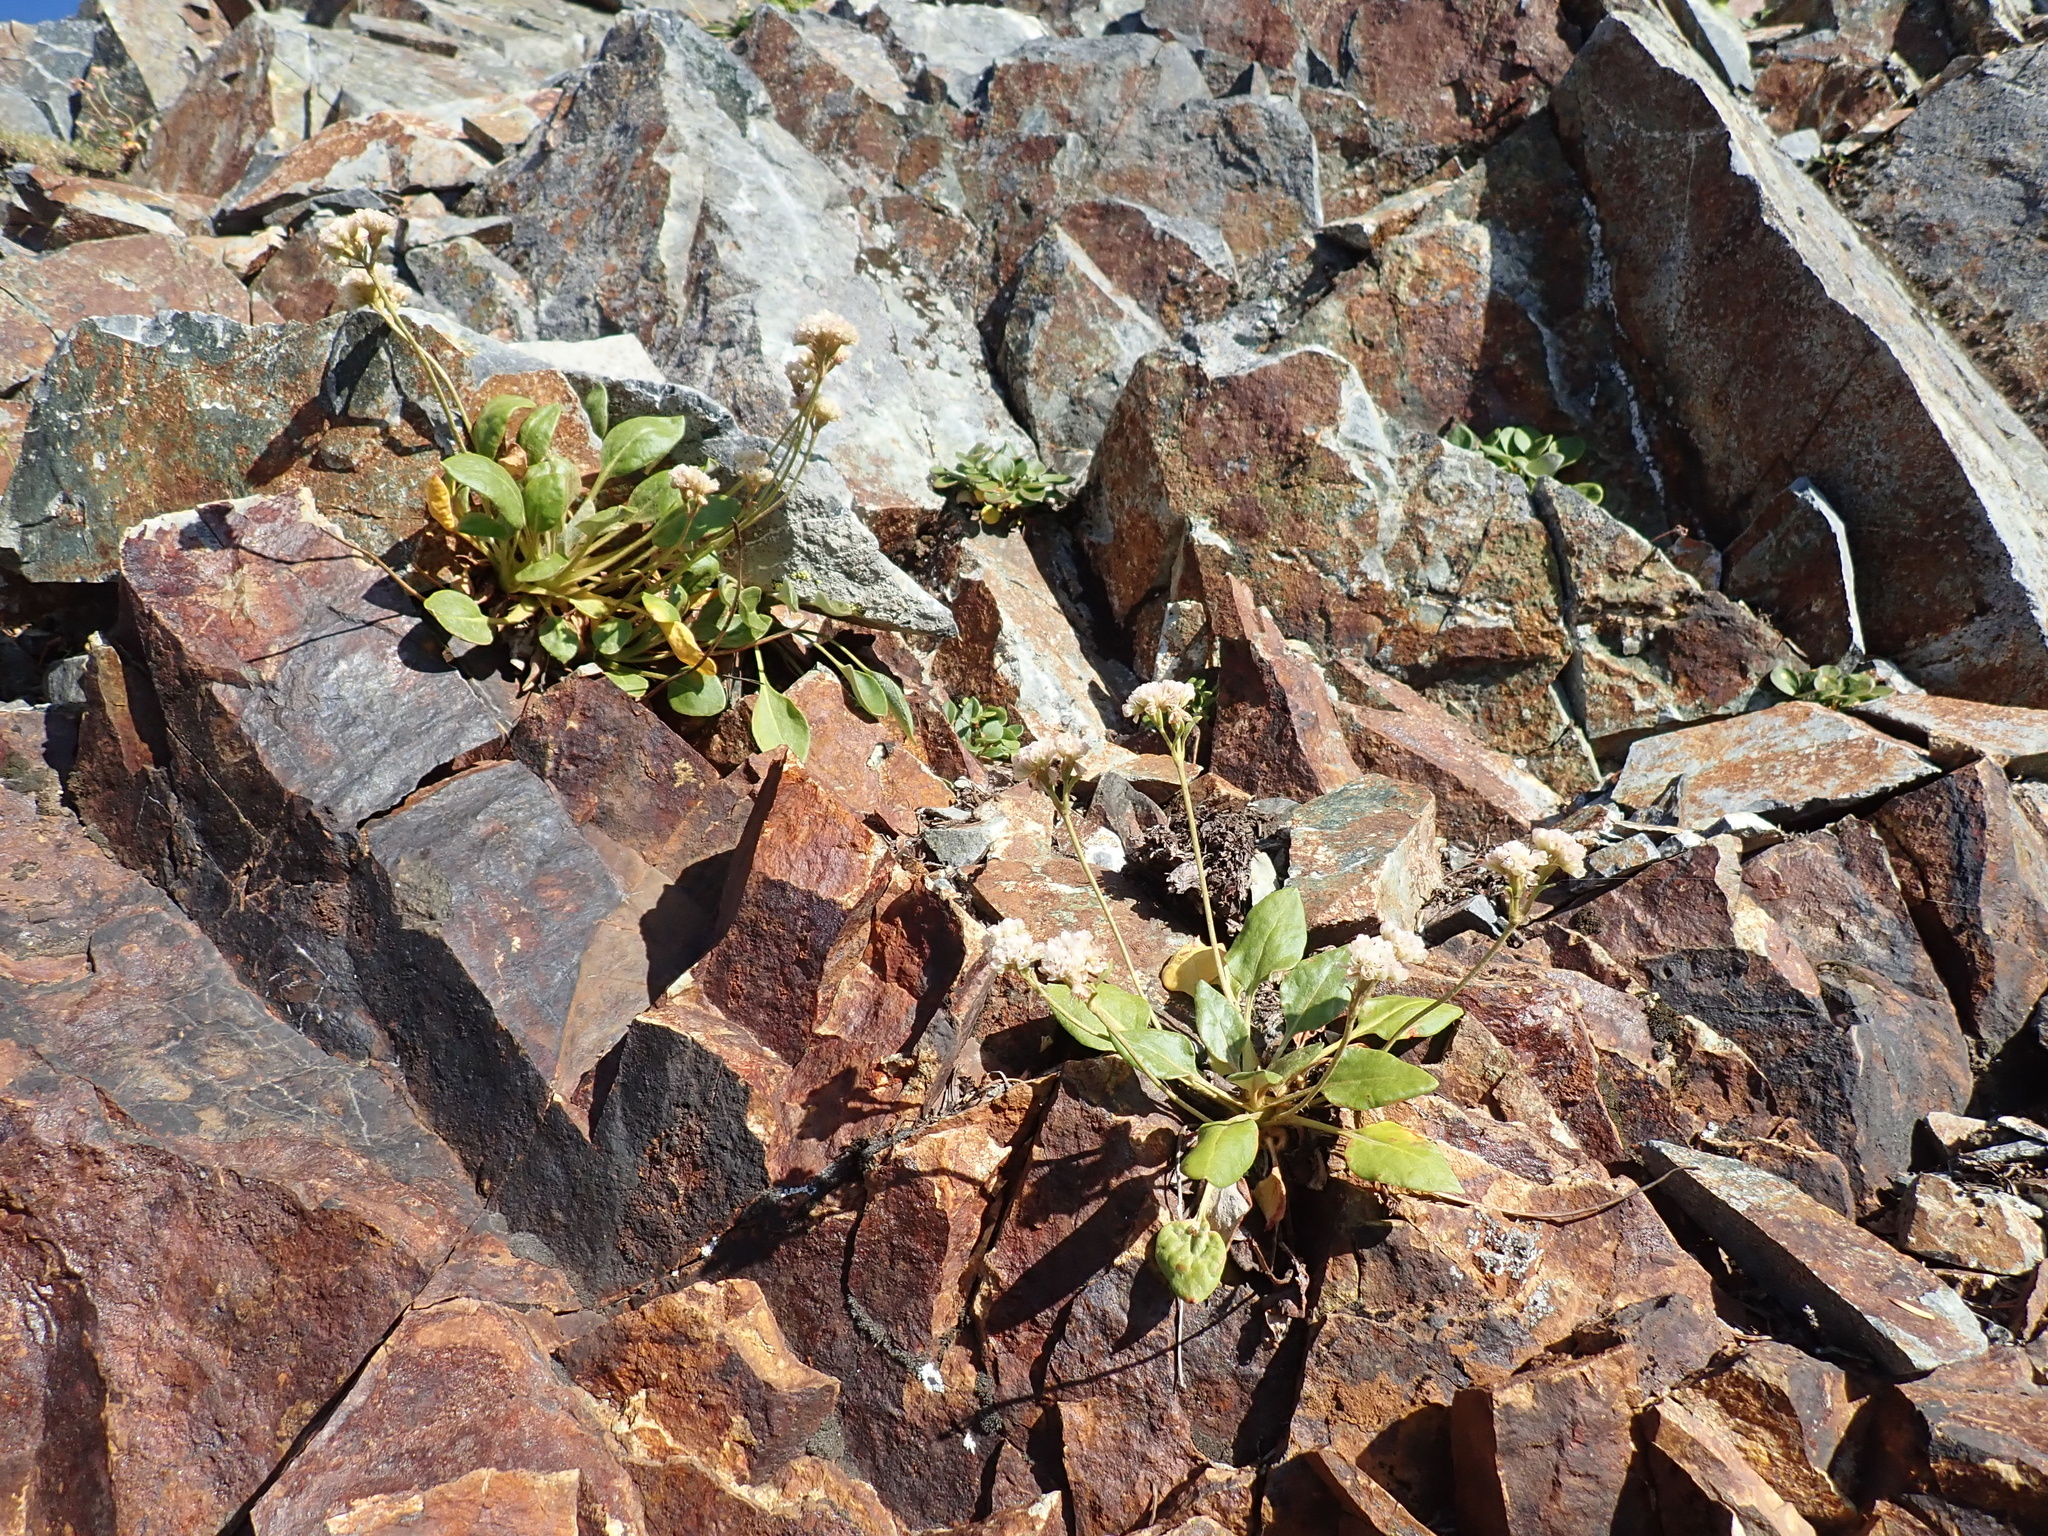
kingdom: Plantae
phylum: Tracheophyta
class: Magnoliopsida
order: Caryophyllales
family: Polygonaceae
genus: Eriogonum
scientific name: Eriogonum pyrolifolium
